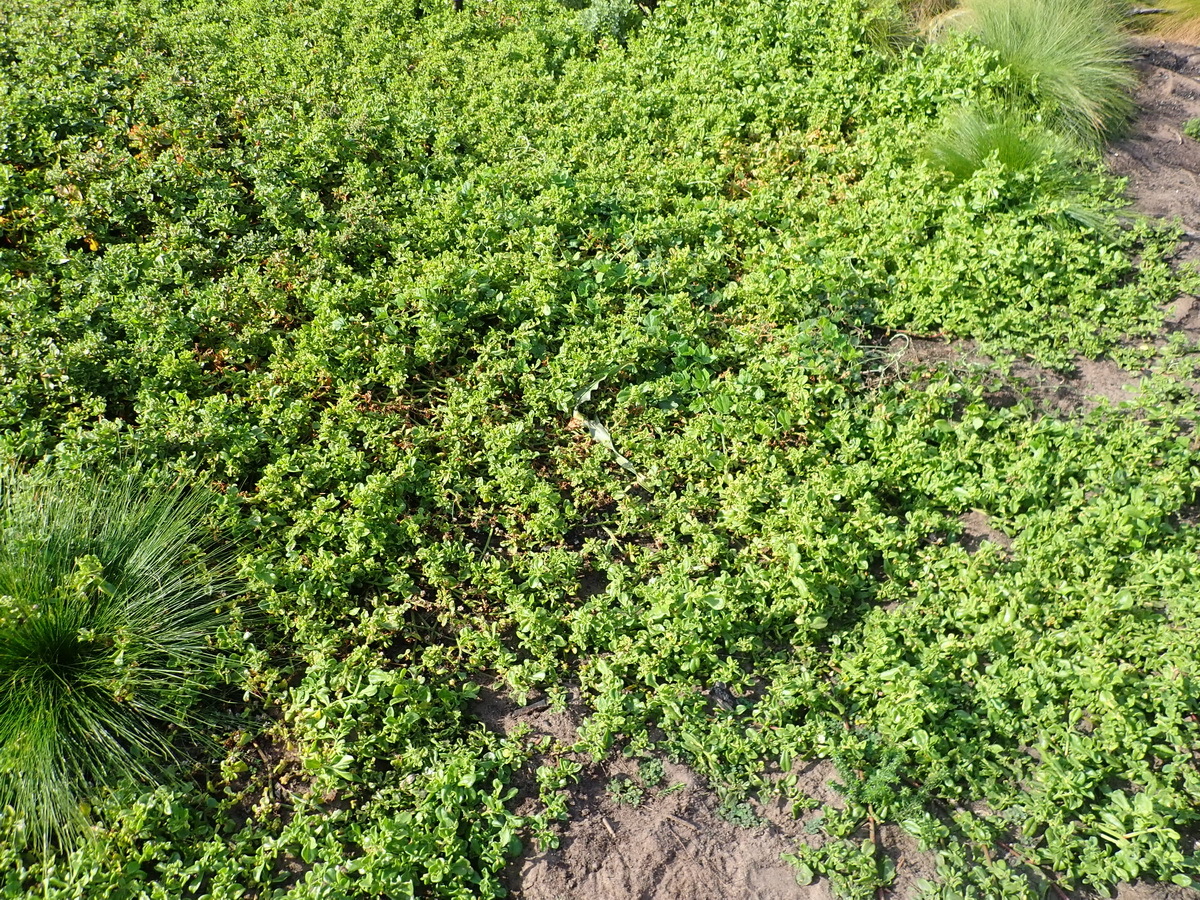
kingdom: Plantae
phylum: Tracheophyta
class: Magnoliopsida
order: Caryophyllales
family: Aizoaceae
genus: Mesembryanthemum
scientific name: Mesembryanthemum aitonis
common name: Angled iceplant
